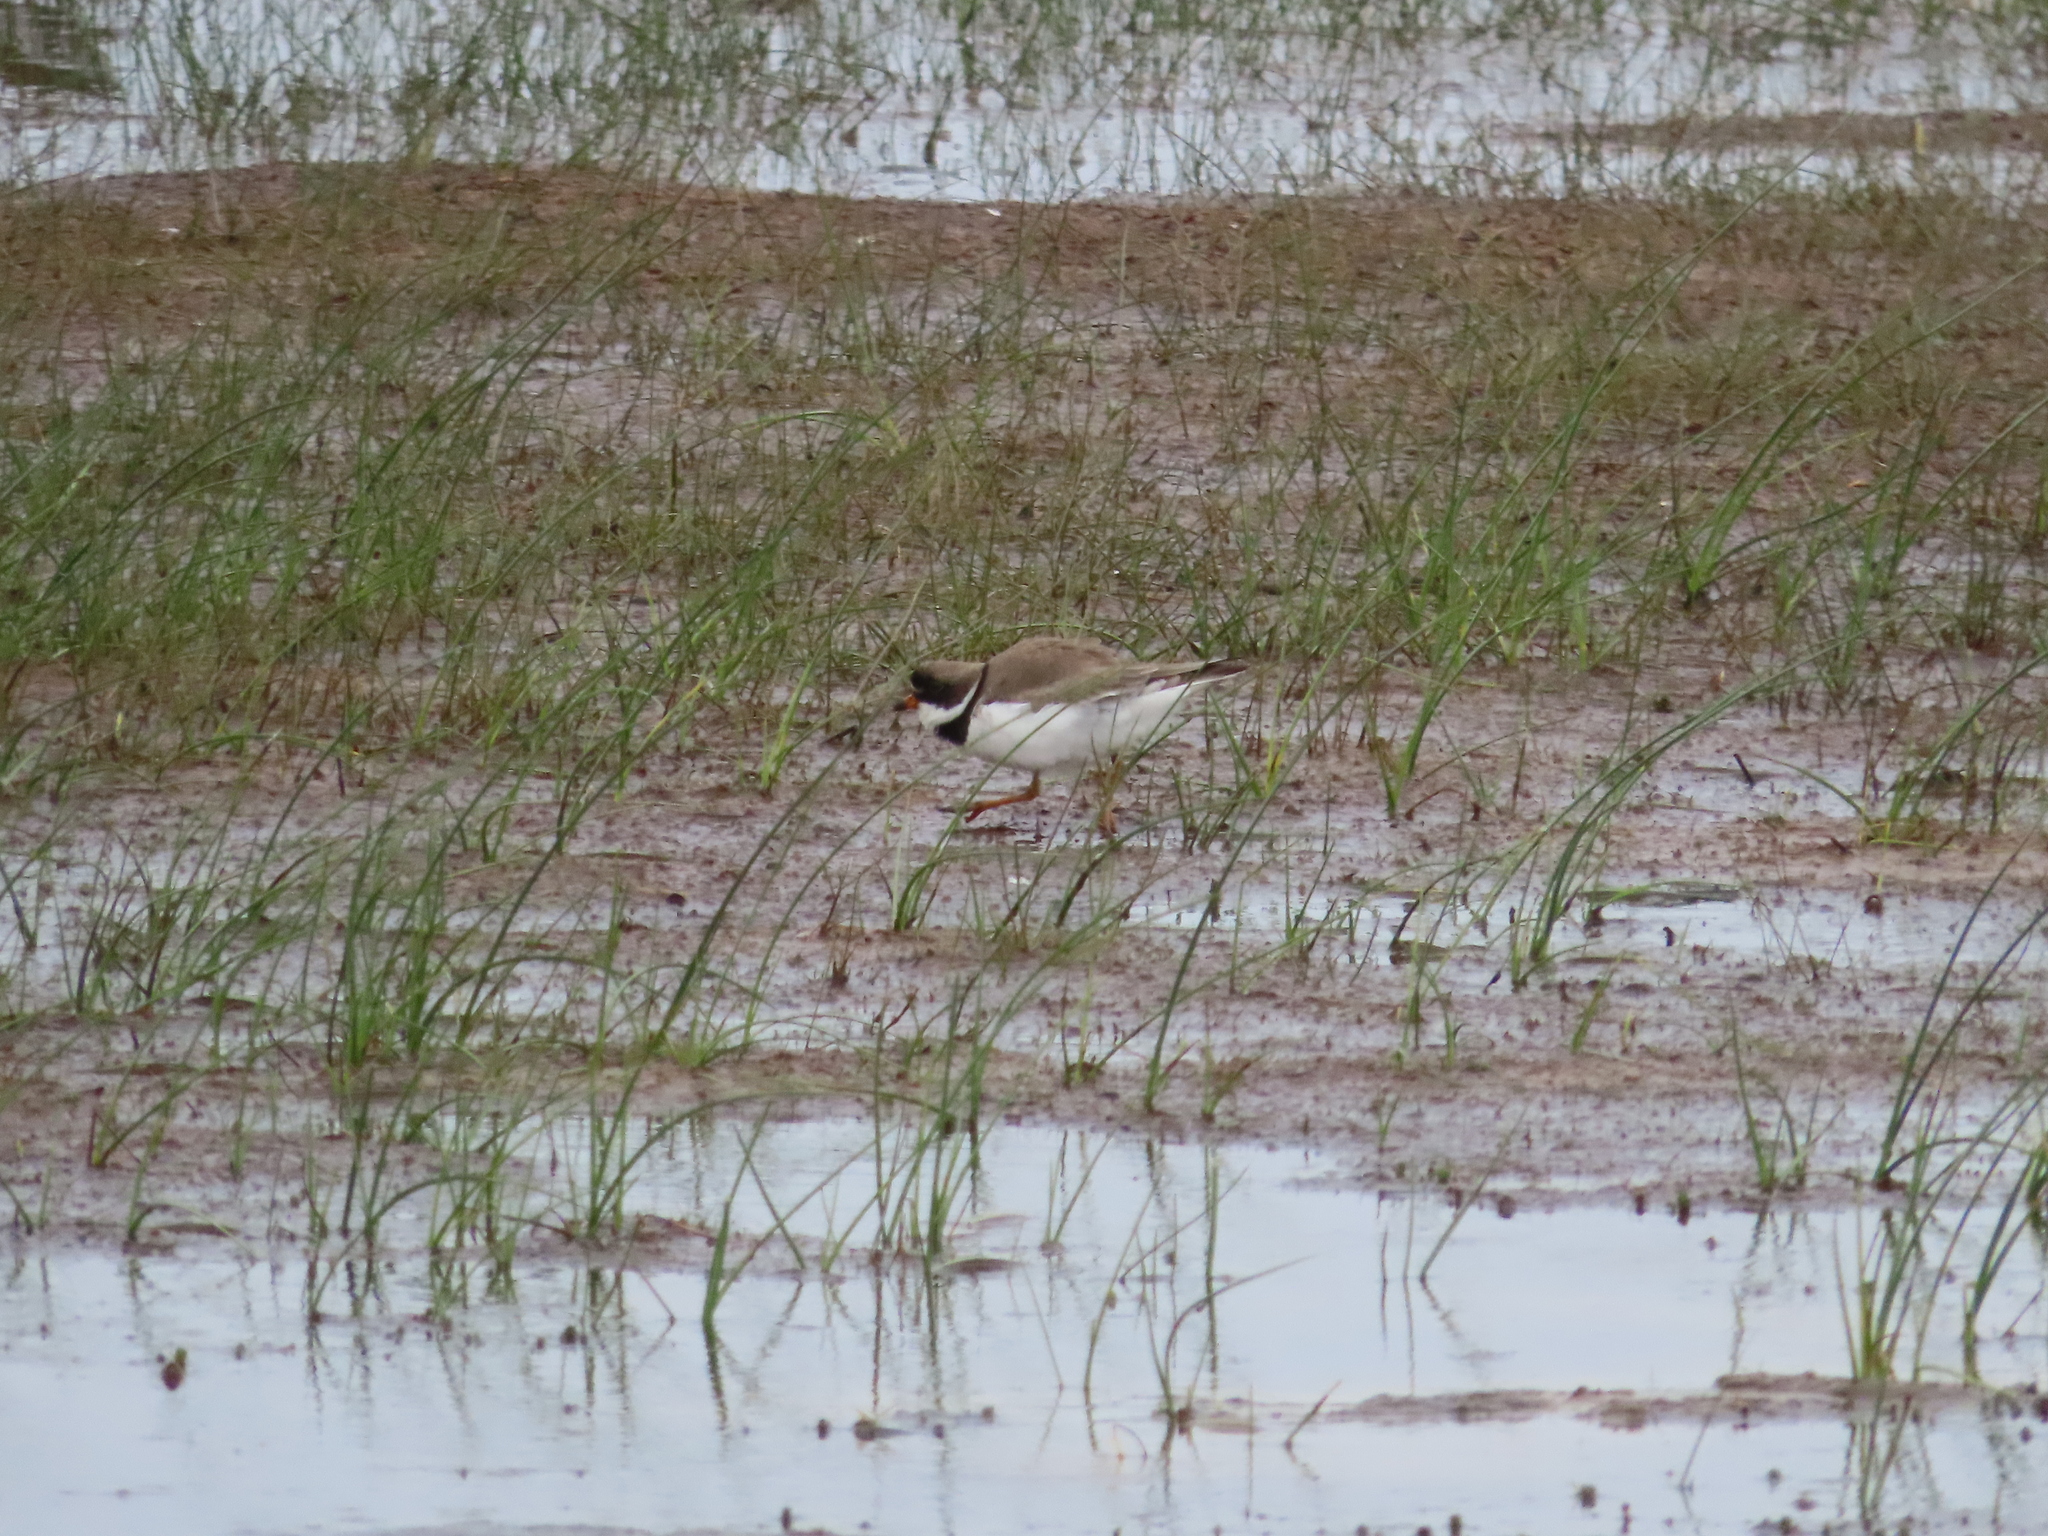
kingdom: Animalia
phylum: Chordata
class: Aves
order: Charadriiformes
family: Charadriidae
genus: Charadrius
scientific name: Charadrius semipalmatus
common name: Semipalmated plover
